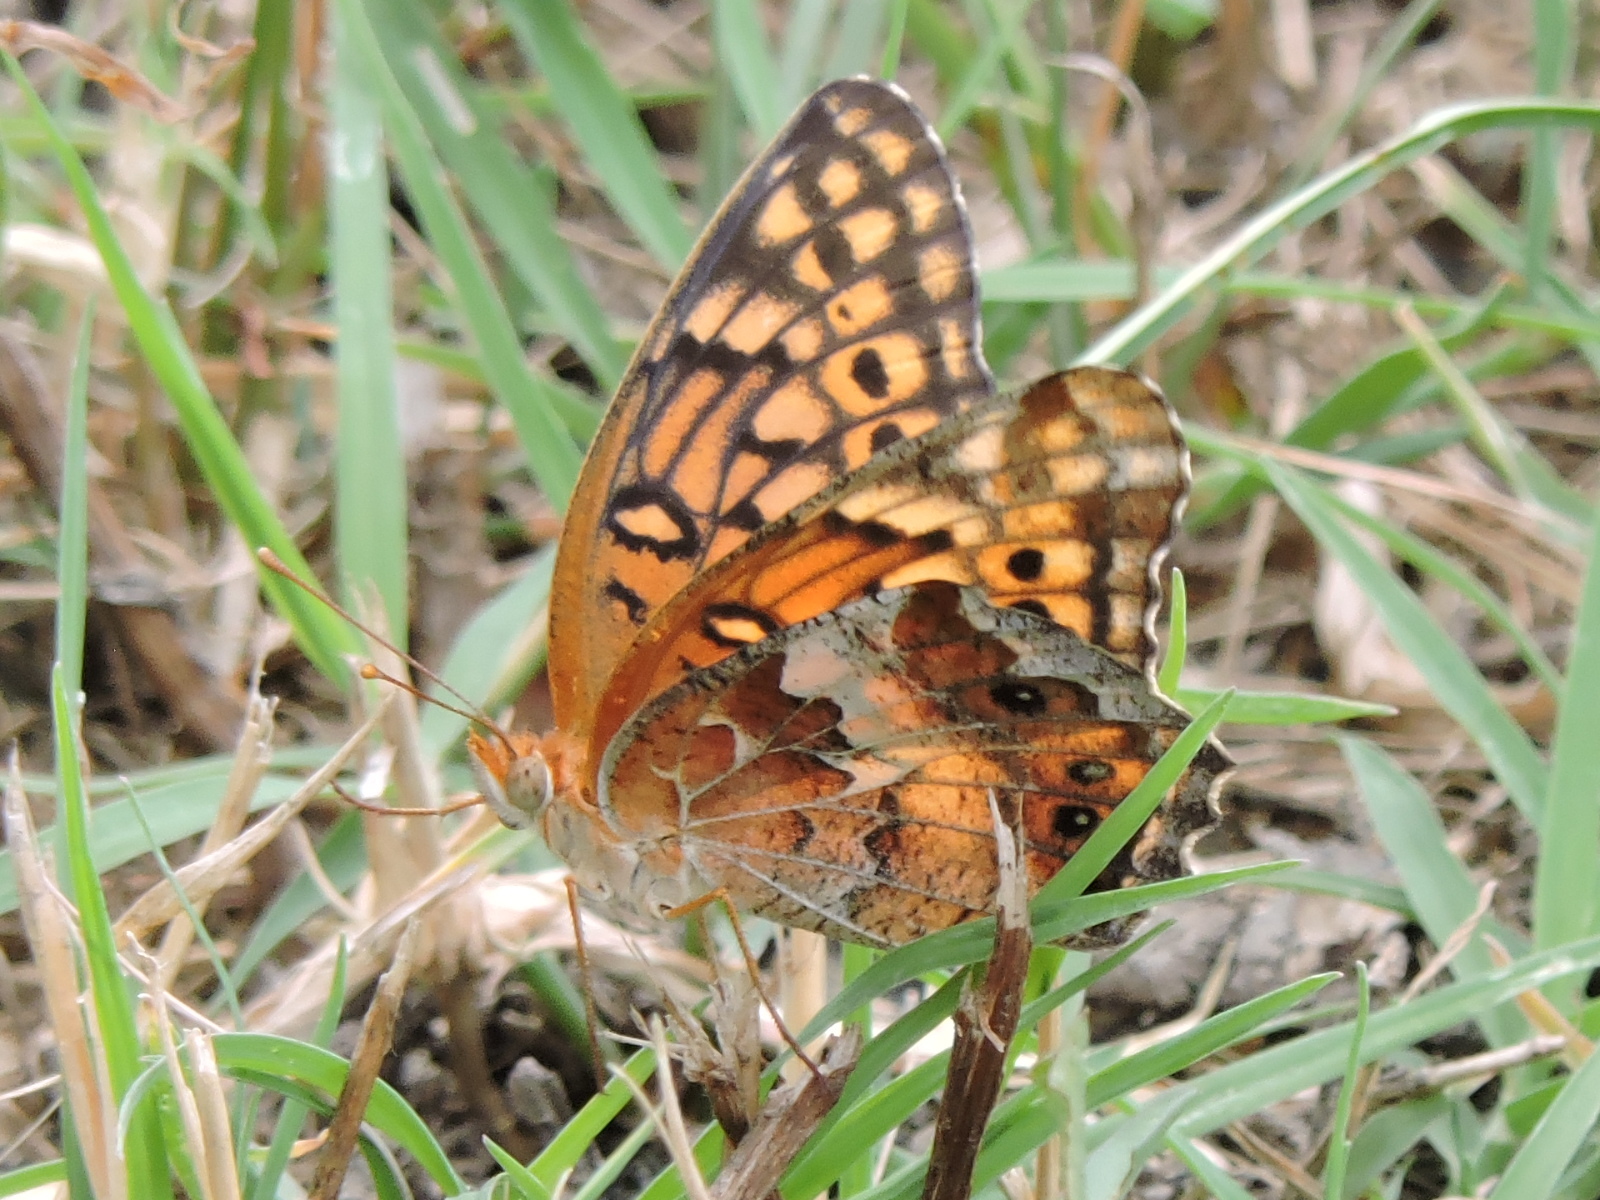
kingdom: Animalia
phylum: Arthropoda
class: Insecta
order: Lepidoptera
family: Nymphalidae
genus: Euptoieta
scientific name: Euptoieta claudia
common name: Variegated fritillary
